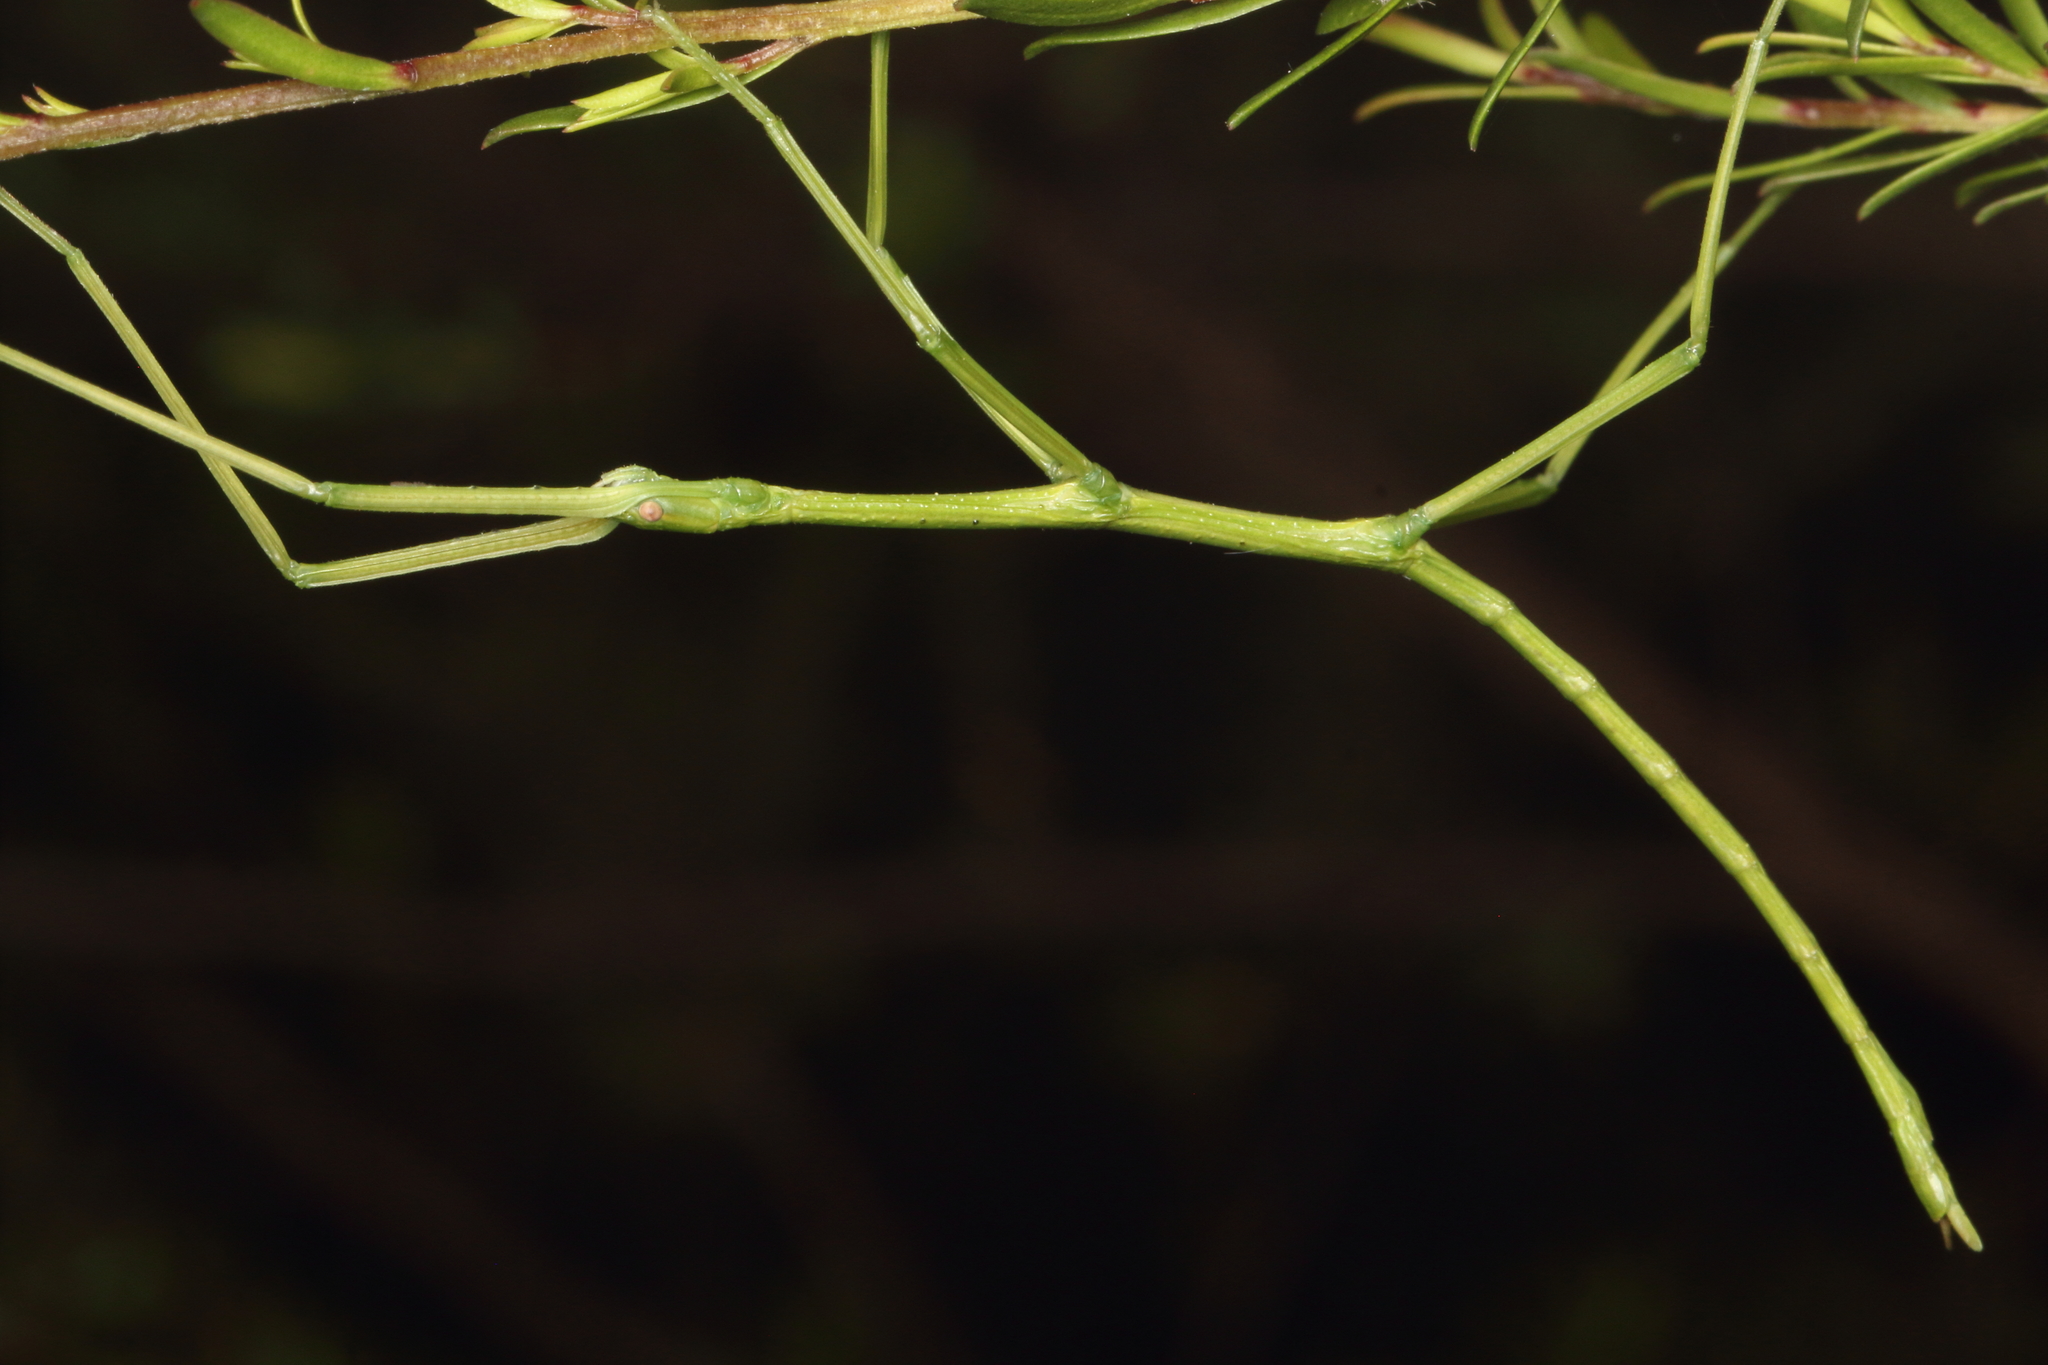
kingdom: Animalia
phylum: Arthropoda
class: Insecta
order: Phasmida
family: Phasmatidae
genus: Clitarchus
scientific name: Clitarchus hookeri
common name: Smooth stick insect
